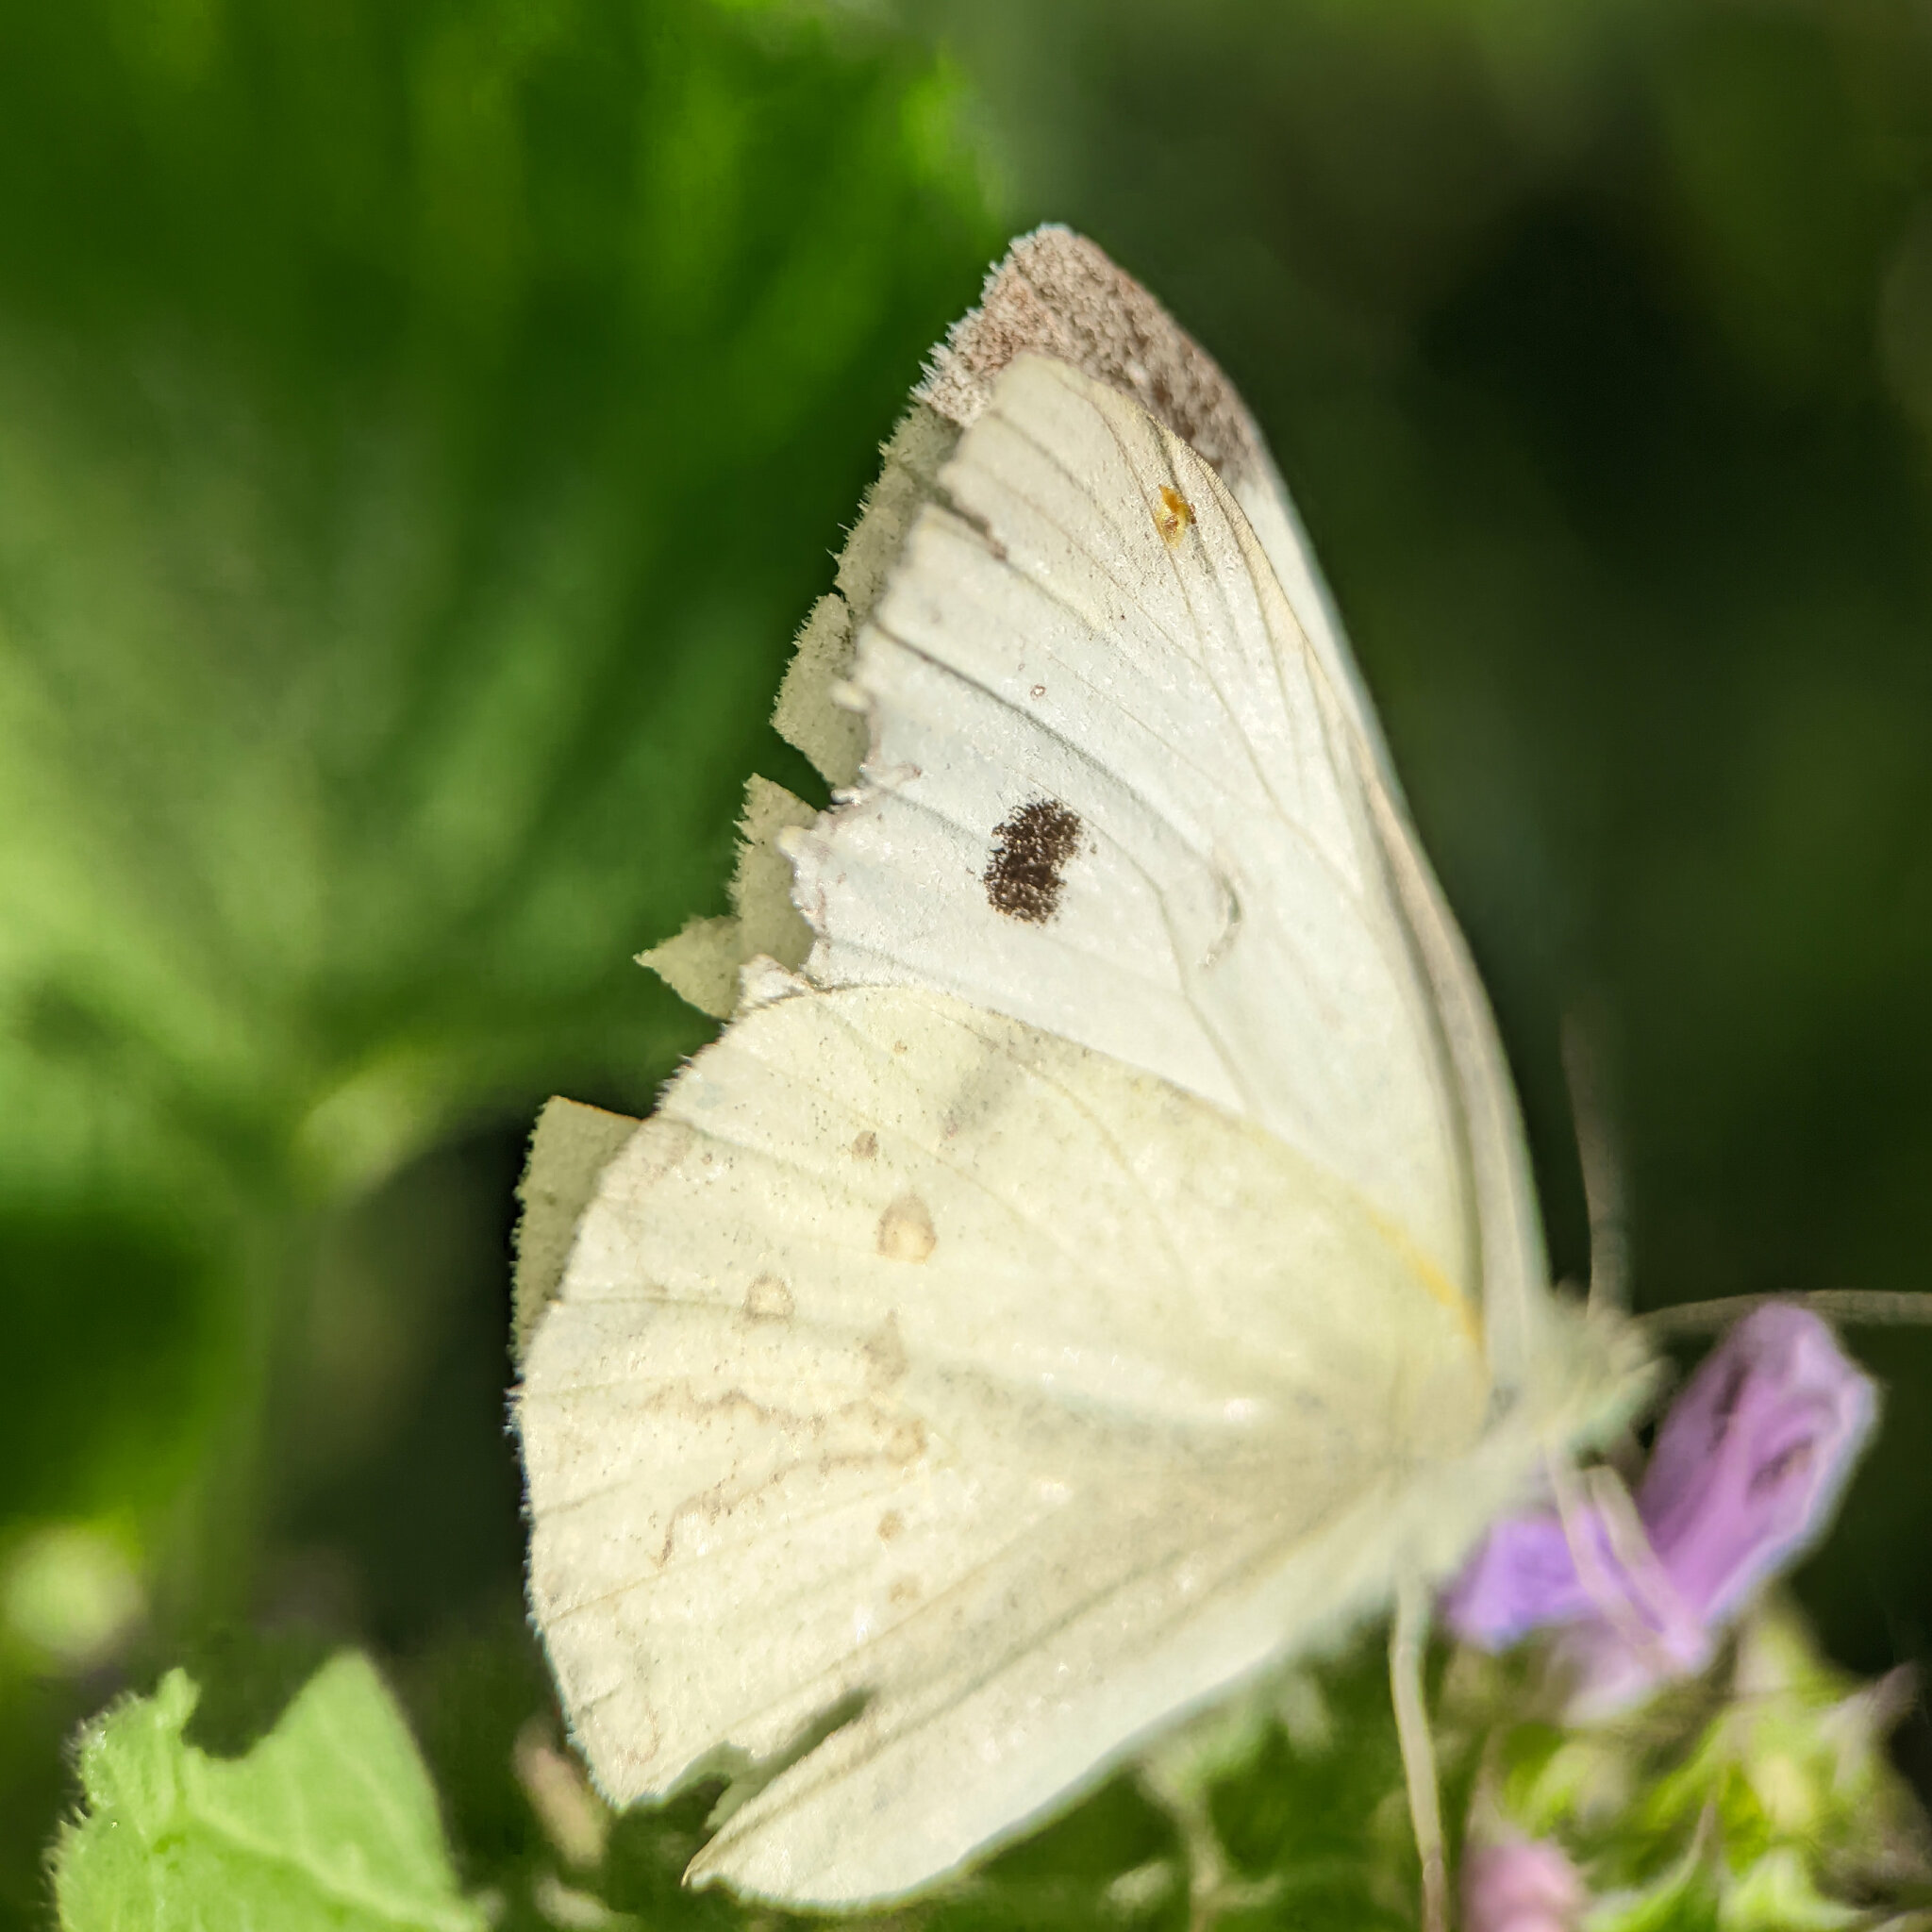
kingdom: Animalia
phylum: Arthropoda
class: Insecta
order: Lepidoptera
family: Pieridae
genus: Pieris
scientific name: Pieris rapae
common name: Small white
